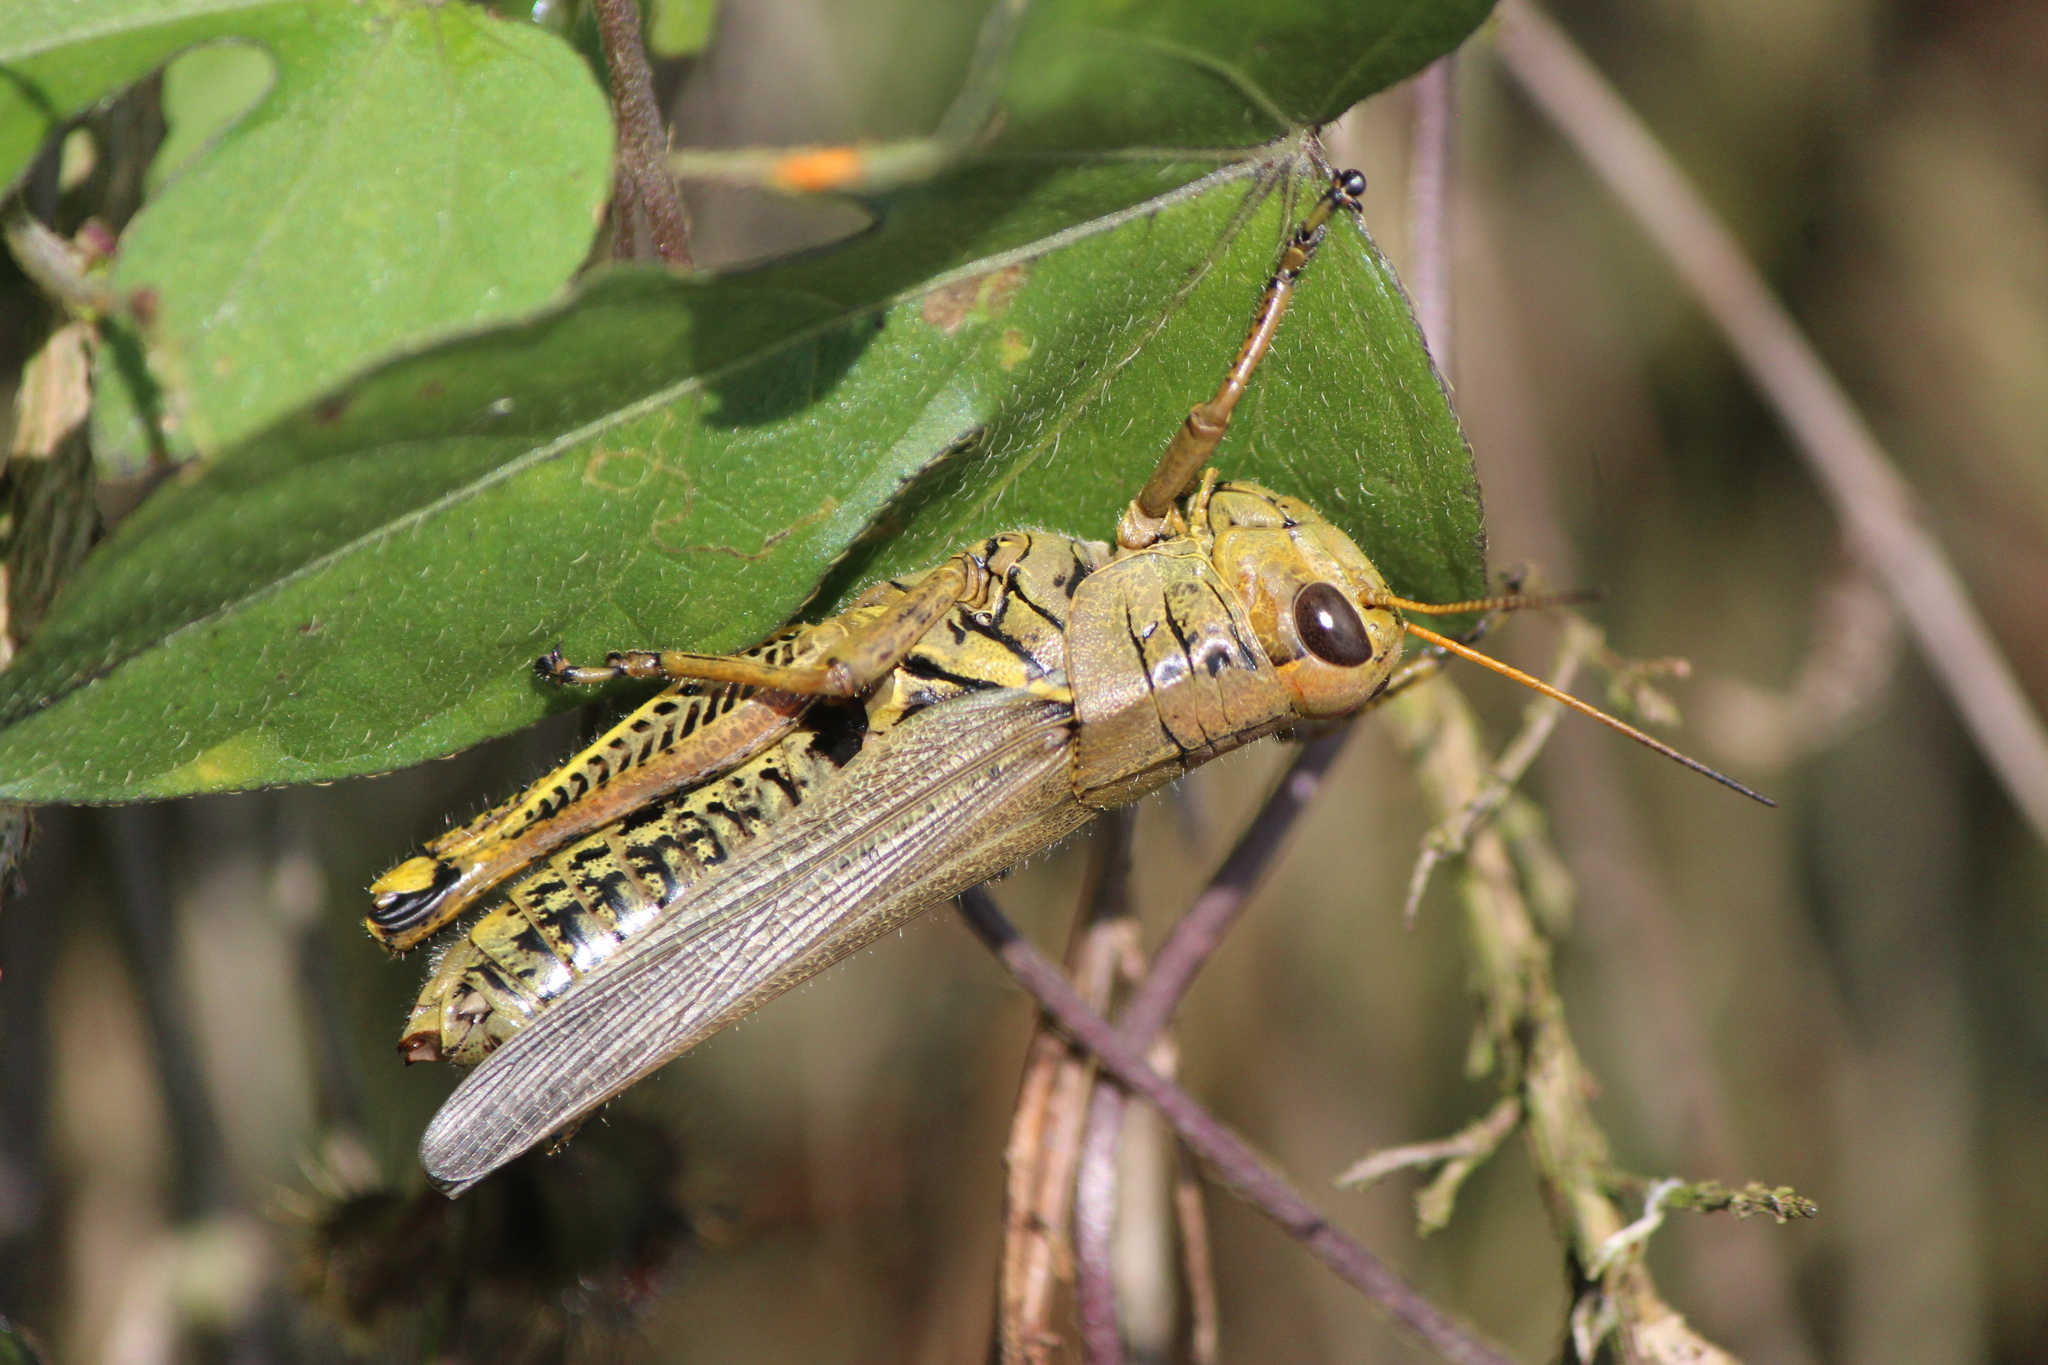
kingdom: Animalia
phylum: Arthropoda
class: Insecta
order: Orthoptera
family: Acrididae
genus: Melanoplus
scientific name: Melanoplus differentialis
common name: Differential grasshopper
